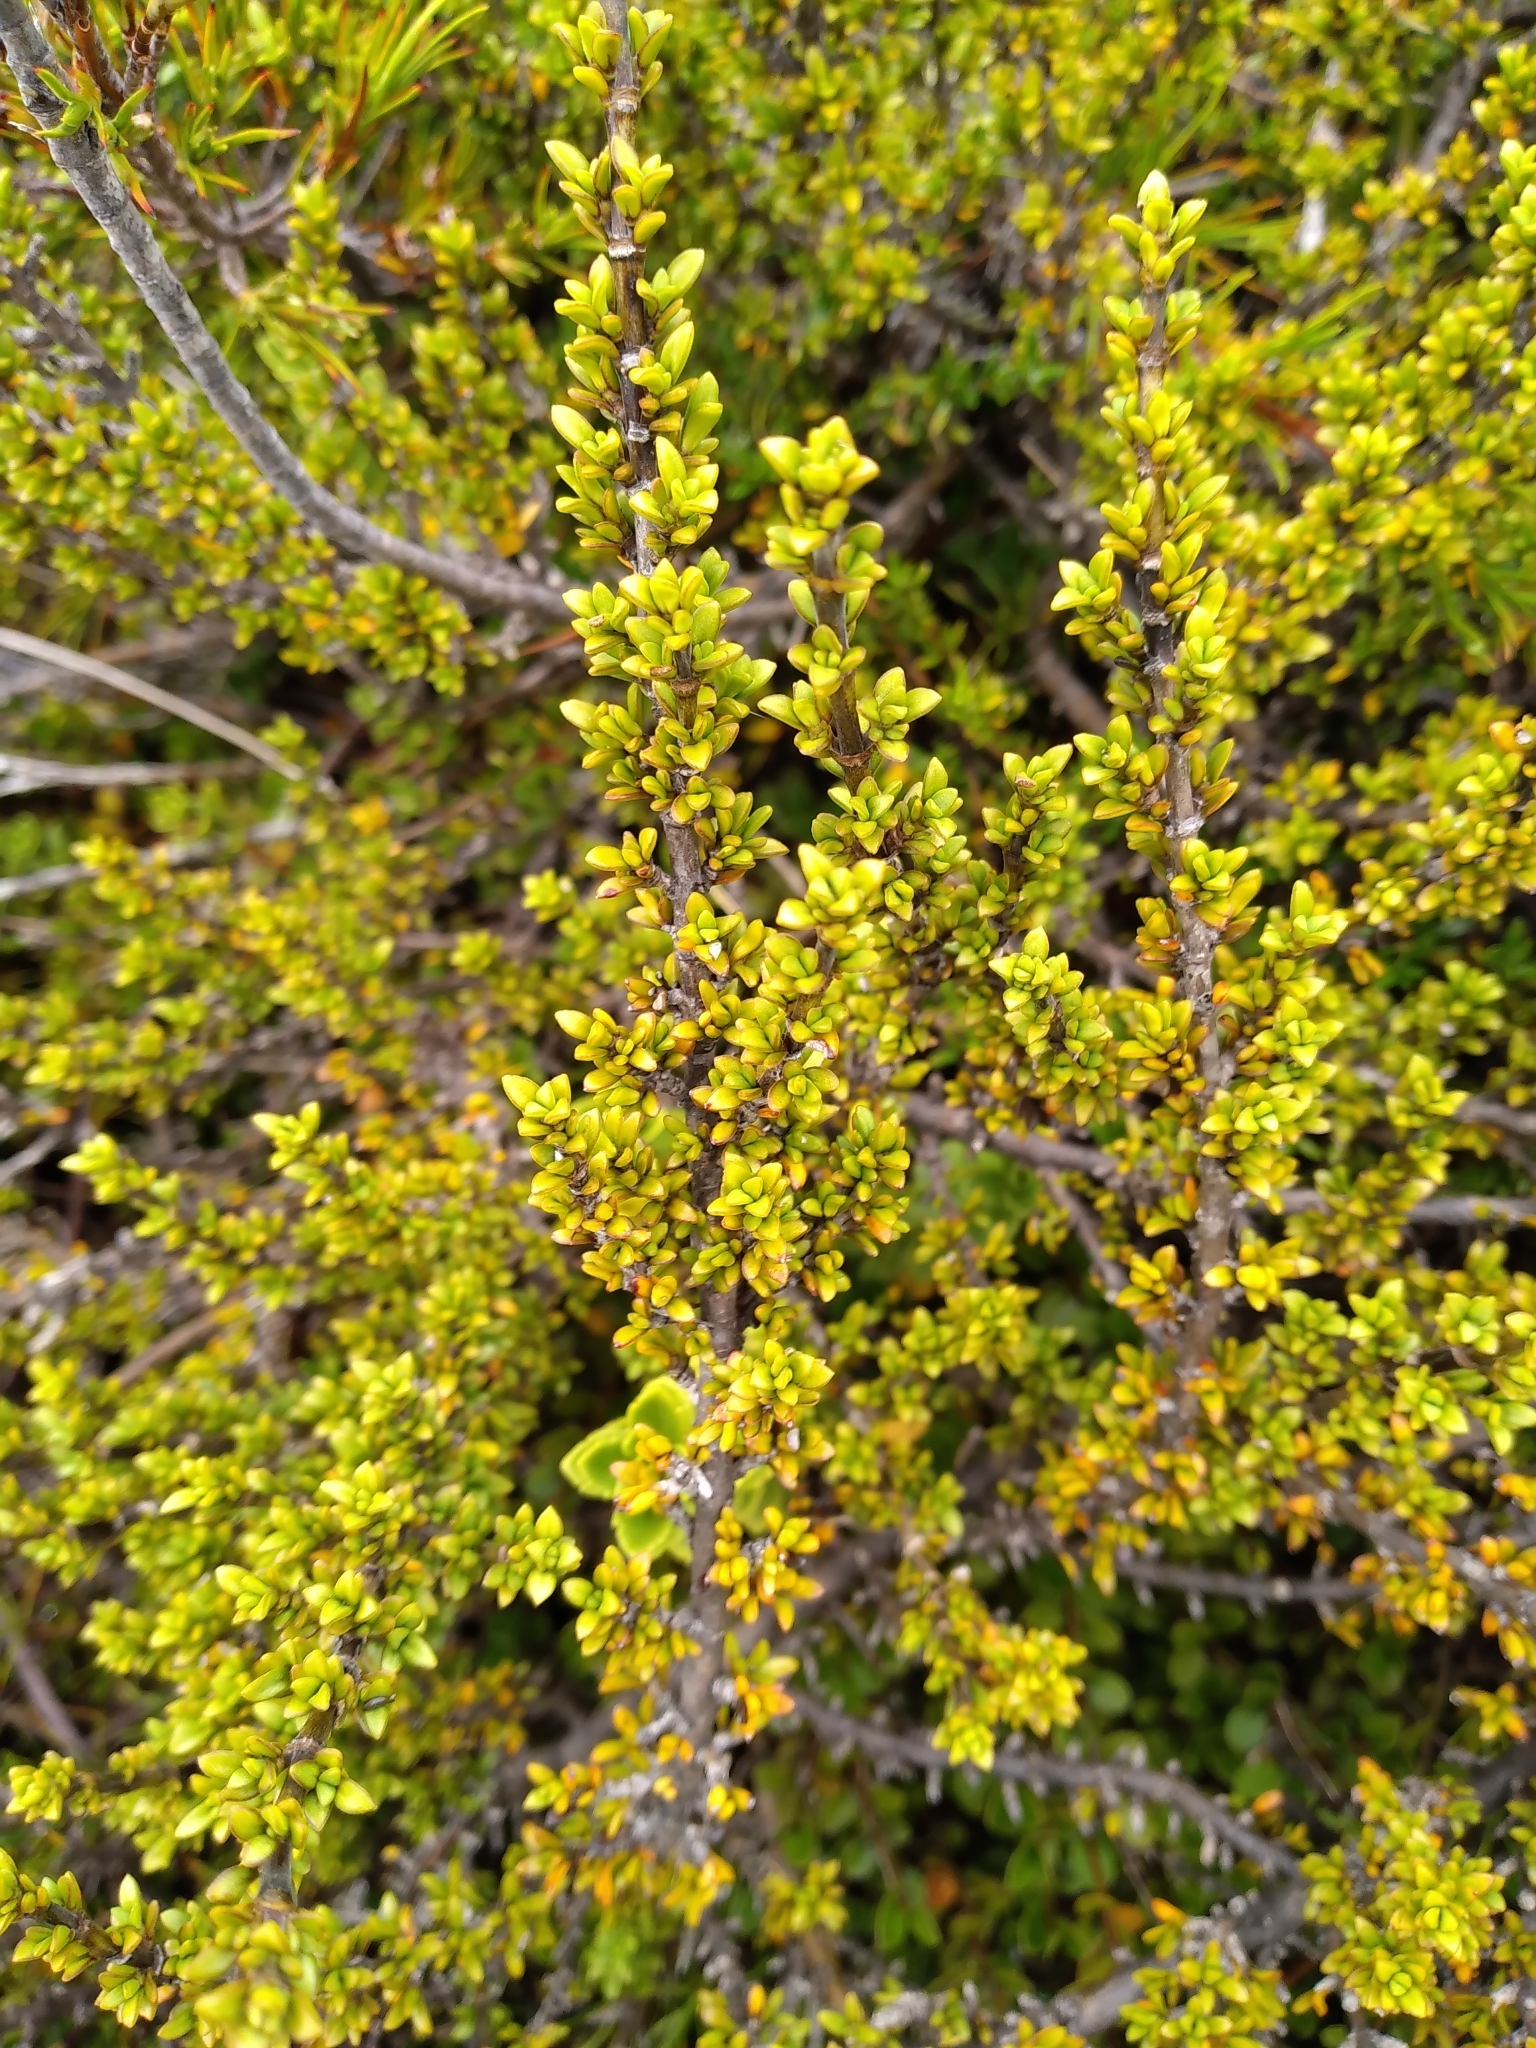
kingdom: Plantae
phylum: Tracheophyta
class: Magnoliopsida
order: Gentianales
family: Rubiaceae
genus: Coprosma
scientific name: Coprosma fowerakeri
